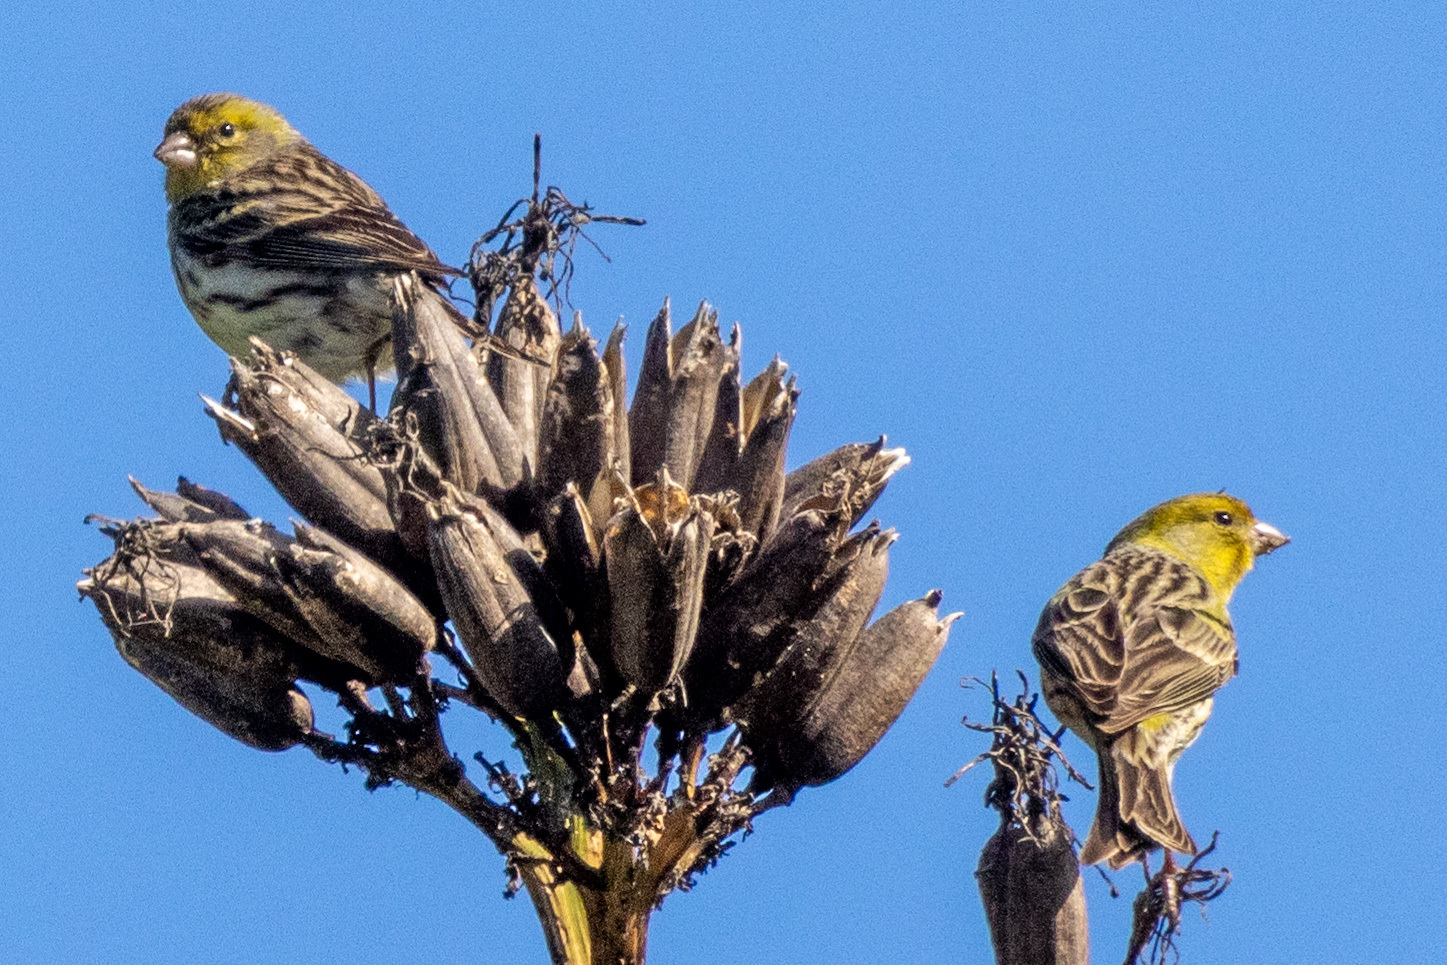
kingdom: Animalia
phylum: Chordata
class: Aves
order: Passeriformes
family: Fringillidae
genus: Serinus
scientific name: Serinus canaria
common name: Atlantic canary
